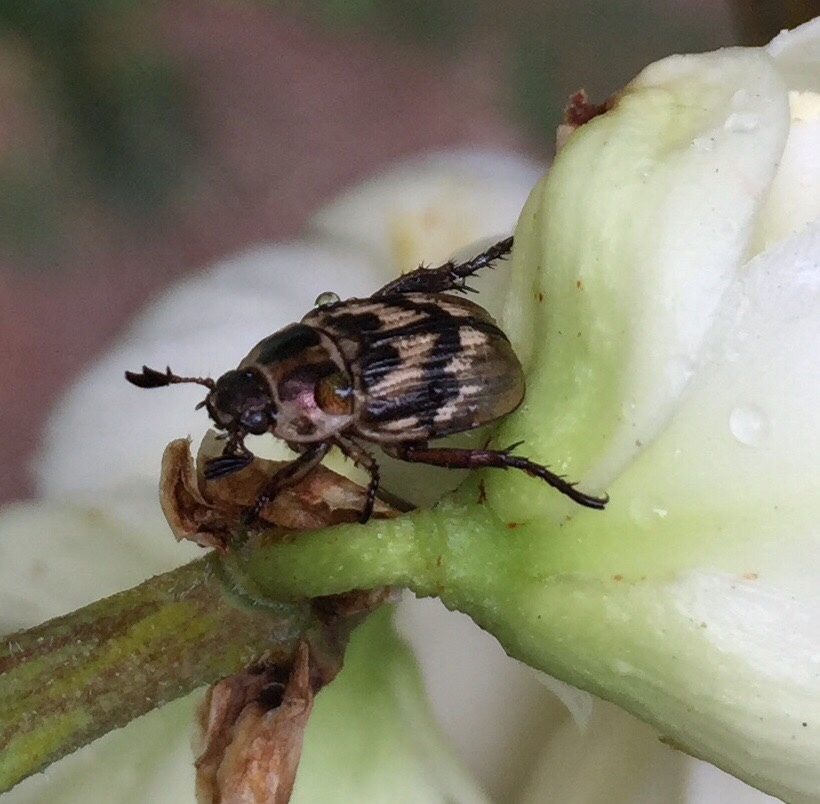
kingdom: Animalia
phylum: Arthropoda
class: Insecta
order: Coleoptera
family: Scarabaeidae
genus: Exomala
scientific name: Exomala orientalis
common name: Oriental beetle
